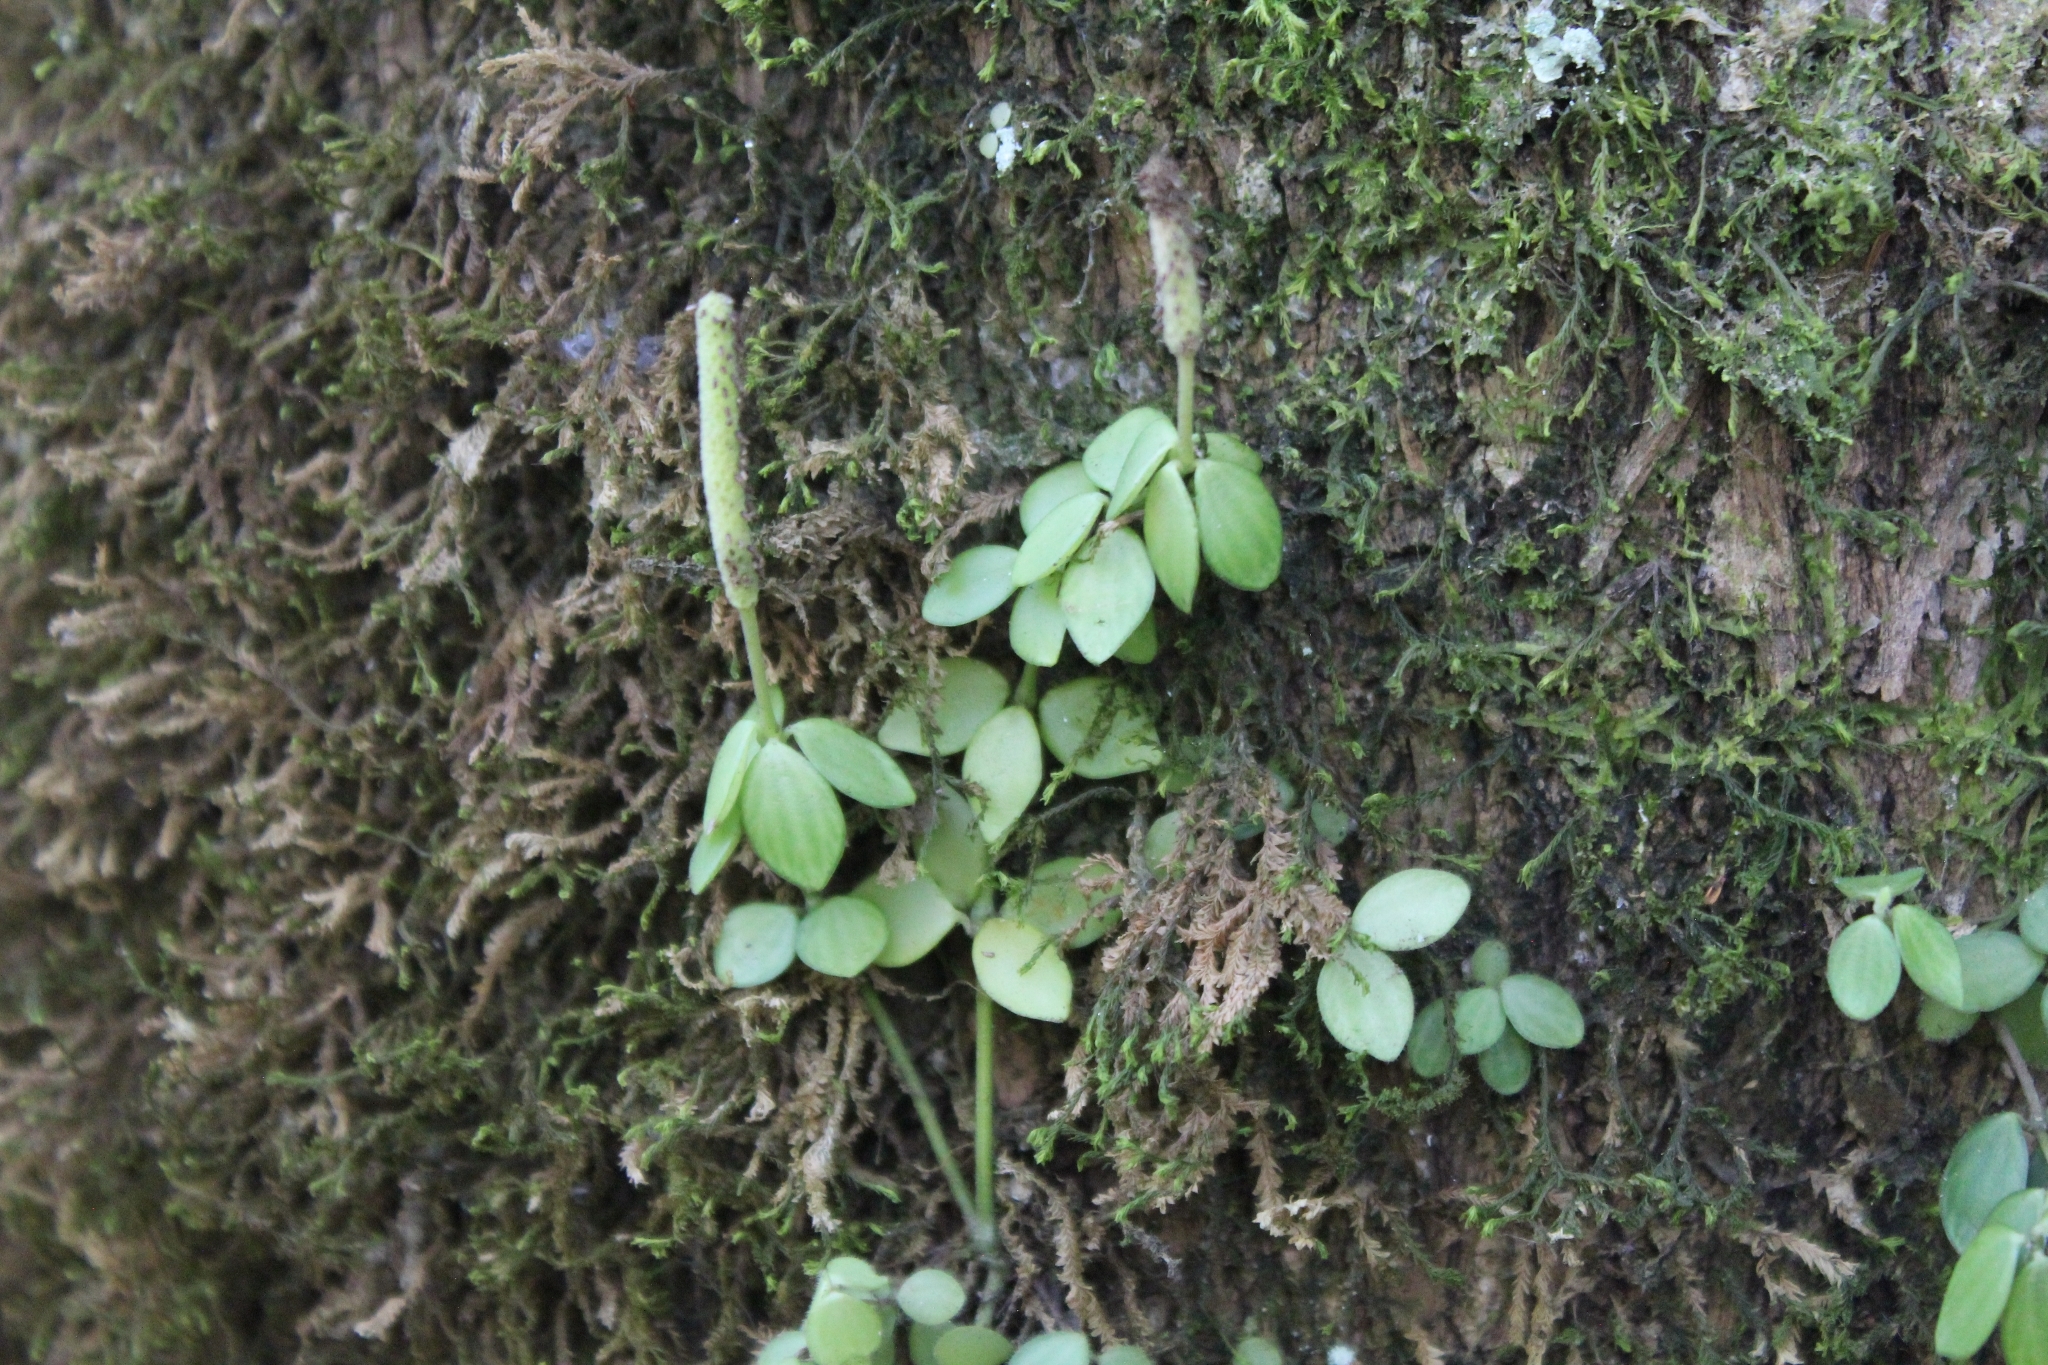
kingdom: Plantae
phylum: Tracheophyta
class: Magnoliopsida
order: Piperales
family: Piperaceae
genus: Peperomia
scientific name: Peperomia tetraphylla
